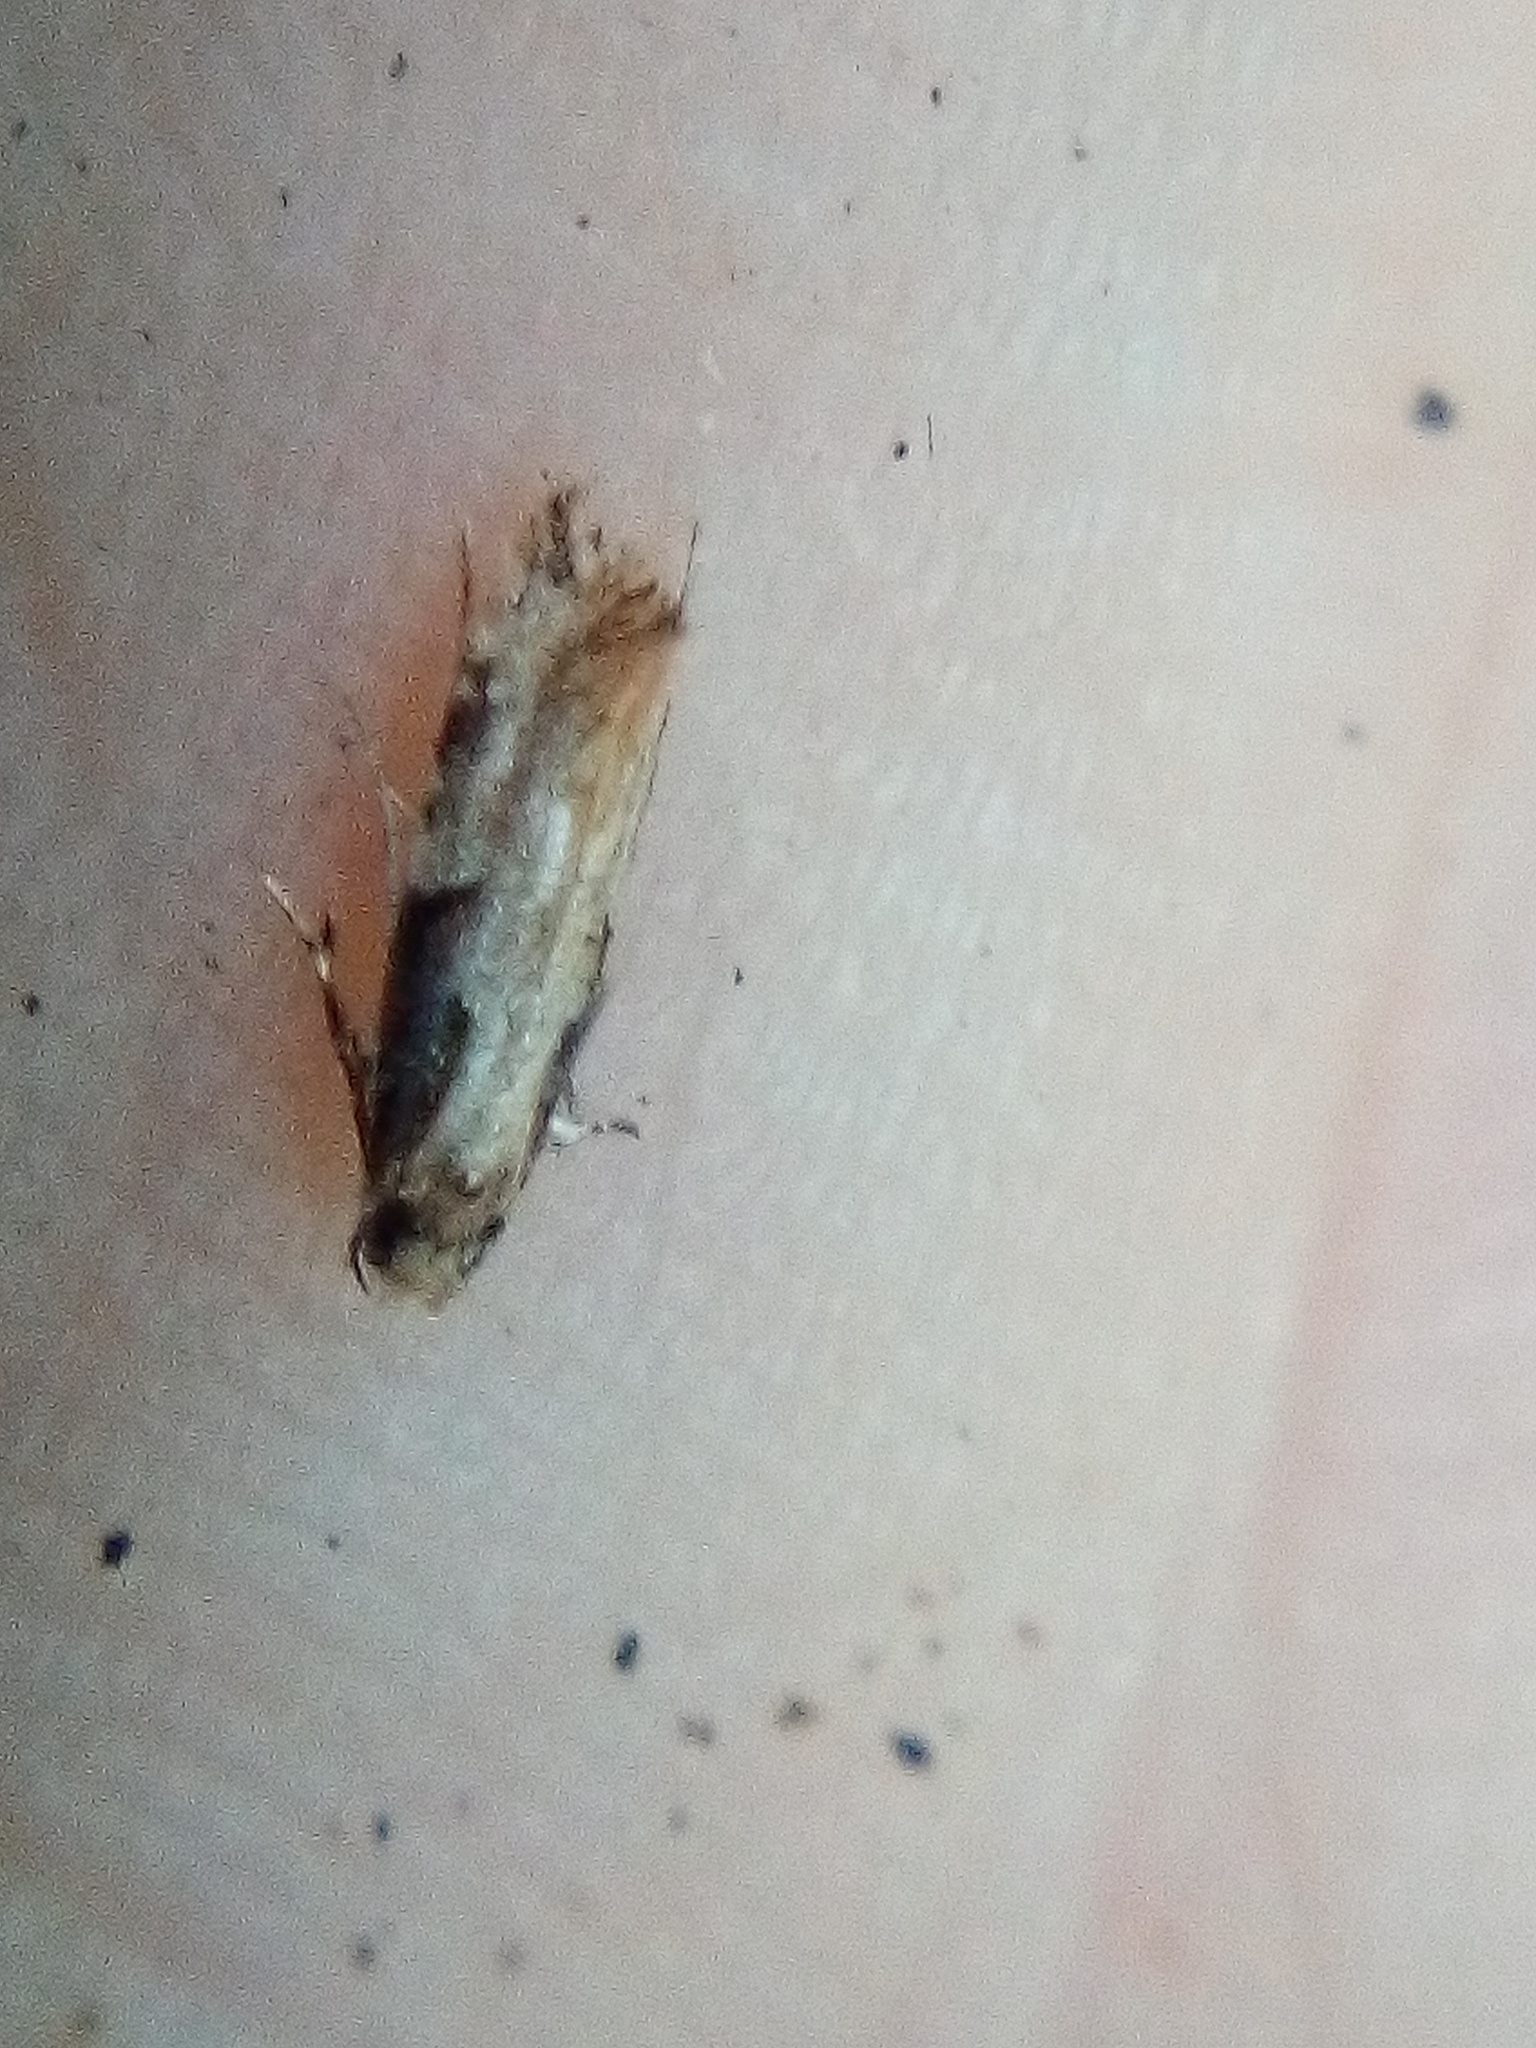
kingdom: Animalia
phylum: Arthropoda
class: Insecta
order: Lepidoptera
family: Tineidae
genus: Crypsitricha
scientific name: Crypsitricha pharotoma
